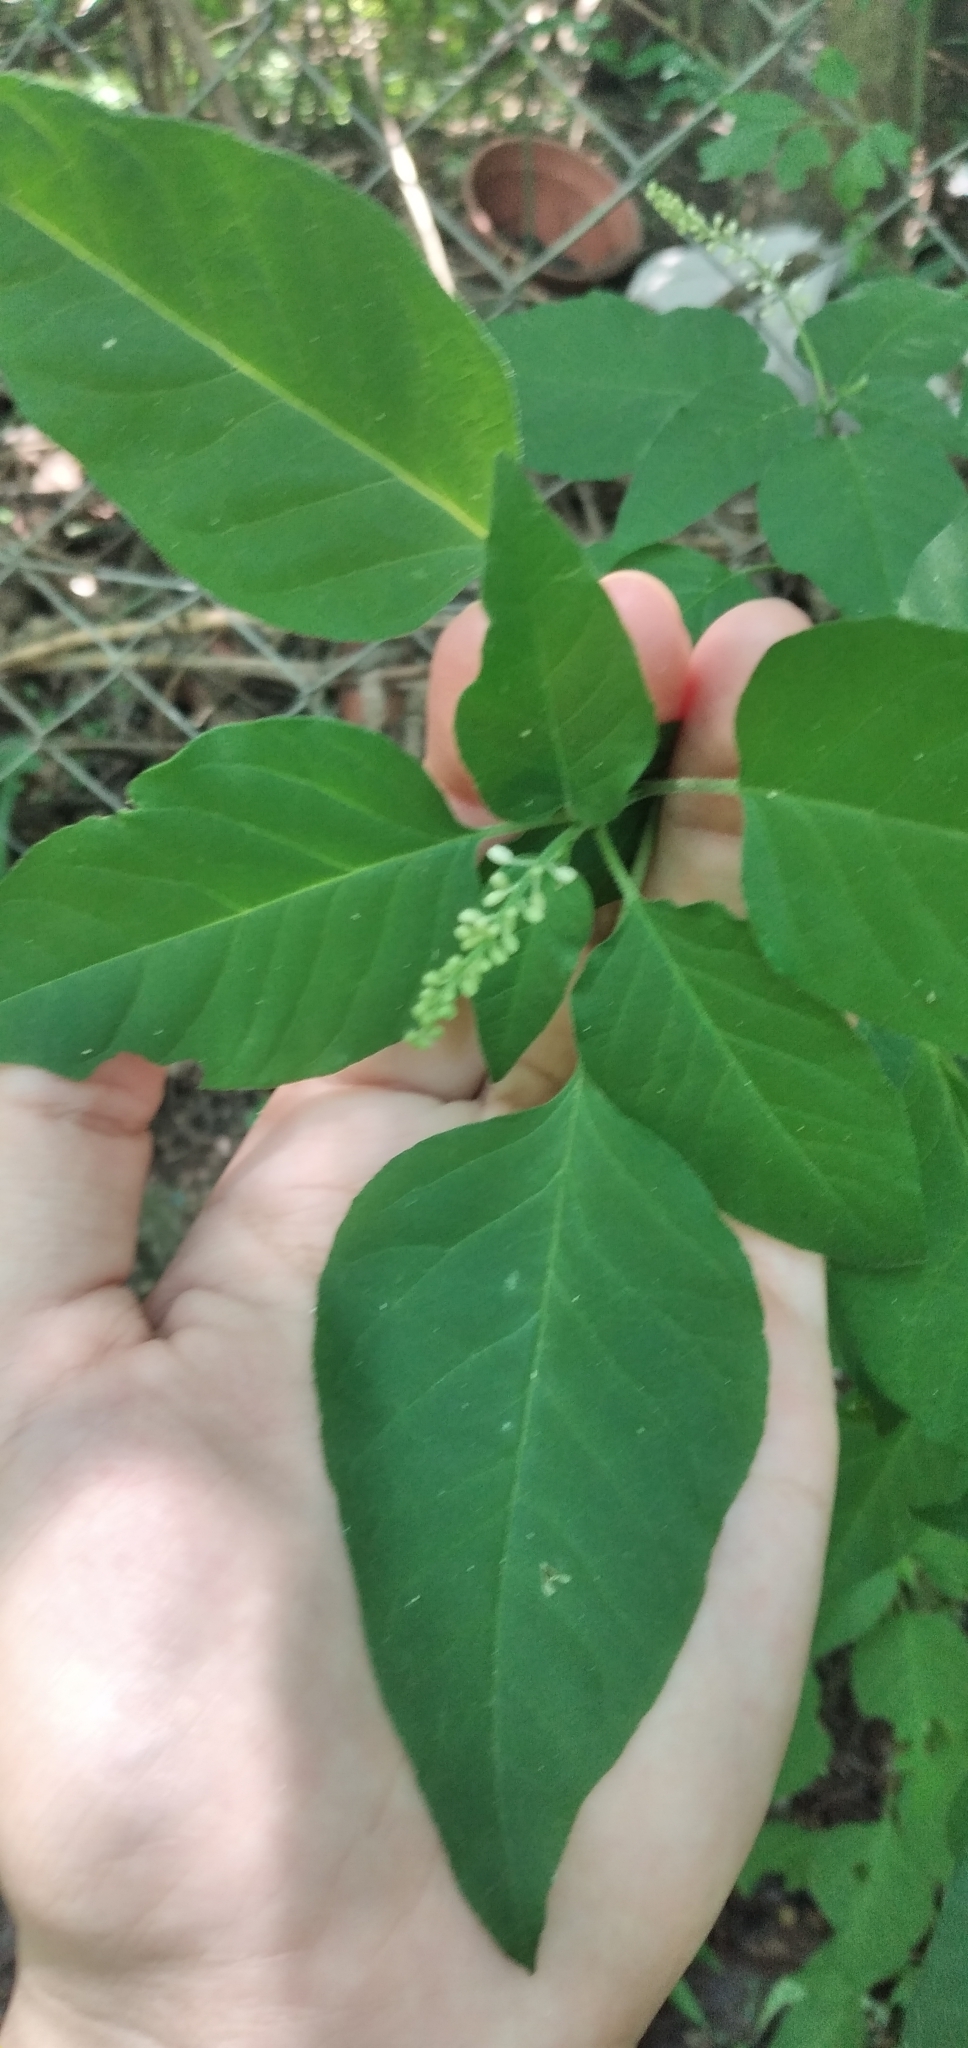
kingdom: Plantae
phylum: Tracheophyta
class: Magnoliopsida
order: Caryophyllales
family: Phytolaccaceae
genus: Rivina
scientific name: Rivina humilis
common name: Rougeplant
